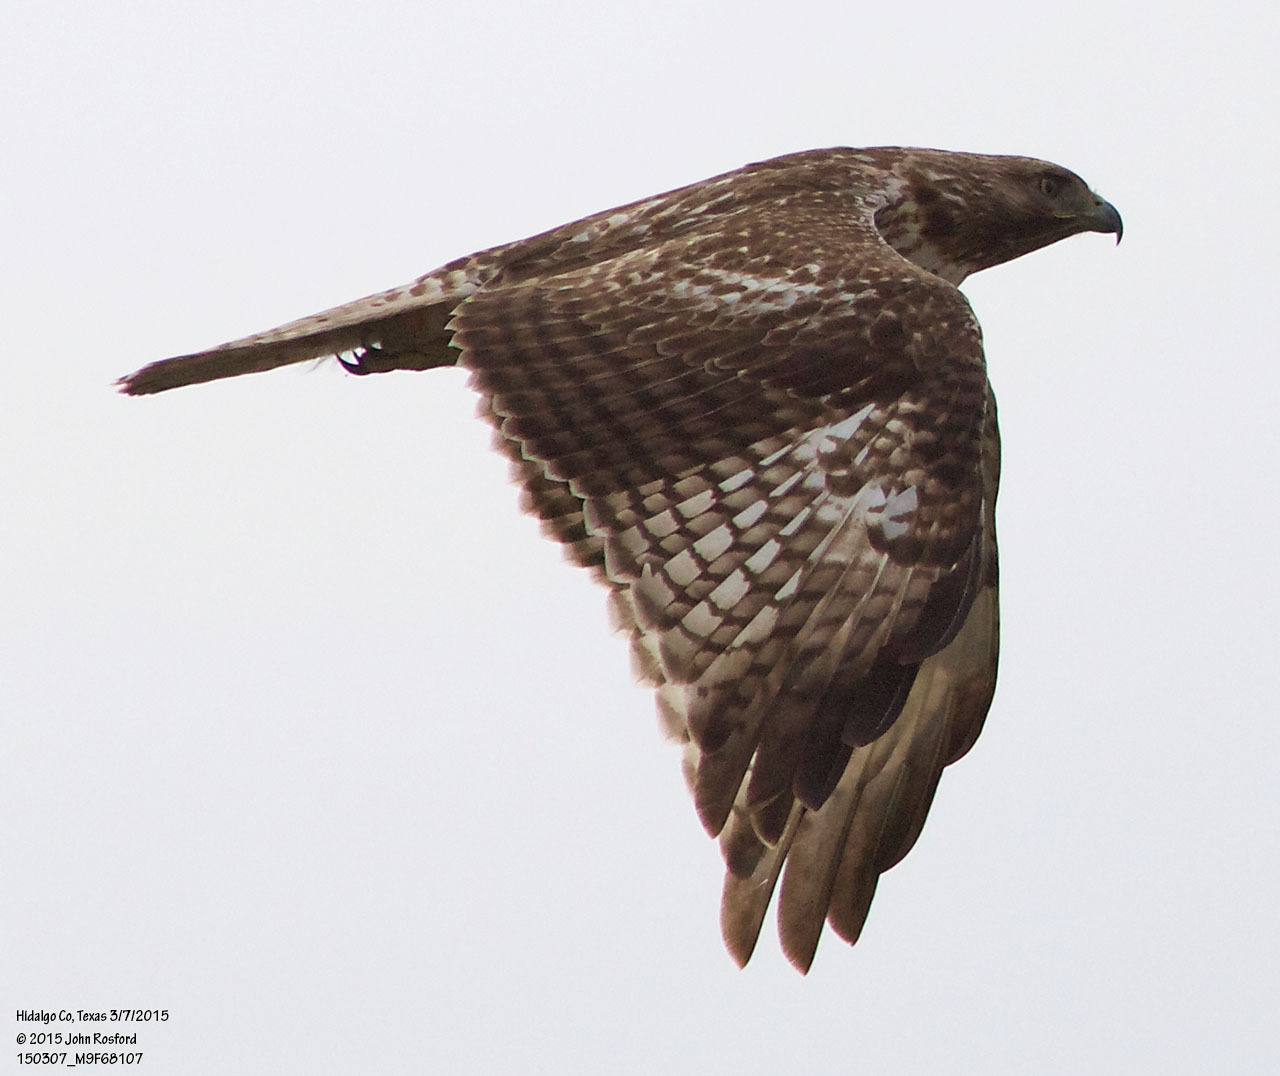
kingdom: Animalia
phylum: Chordata
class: Aves
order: Accipitriformes
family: Accipitridae
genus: Buteo
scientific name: Buteo jamaicensis
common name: Red-tailed hawk
